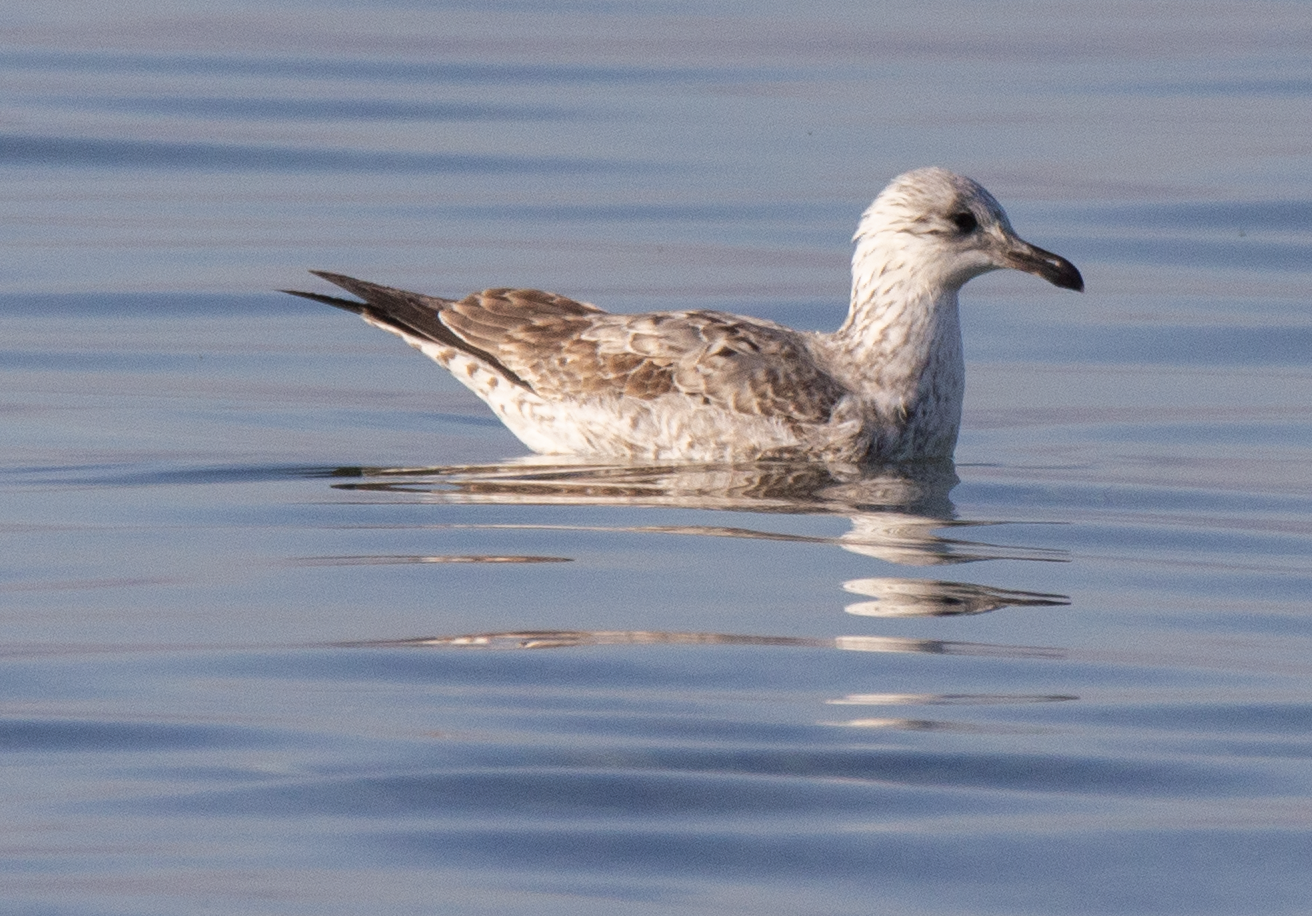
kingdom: Animalia
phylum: Chordata
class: Aves
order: Charadriiformes
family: Laridae
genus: Larus
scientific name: Larus michahellis
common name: Yellow-legged gull
